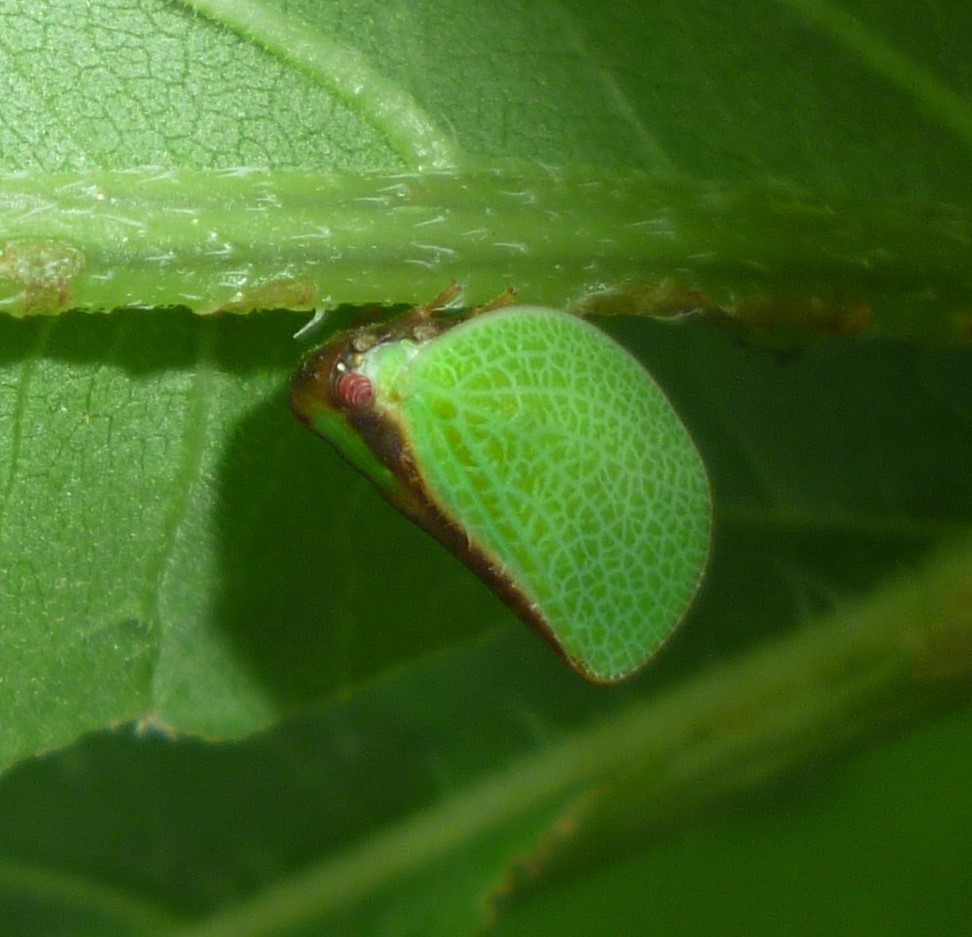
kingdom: Animalia
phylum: Arthropoda
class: Insecta
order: Hemiptera
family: Acanaloniidae
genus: Acanalonia
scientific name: Acanalonia bivittata
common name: Two-striped planthopper
